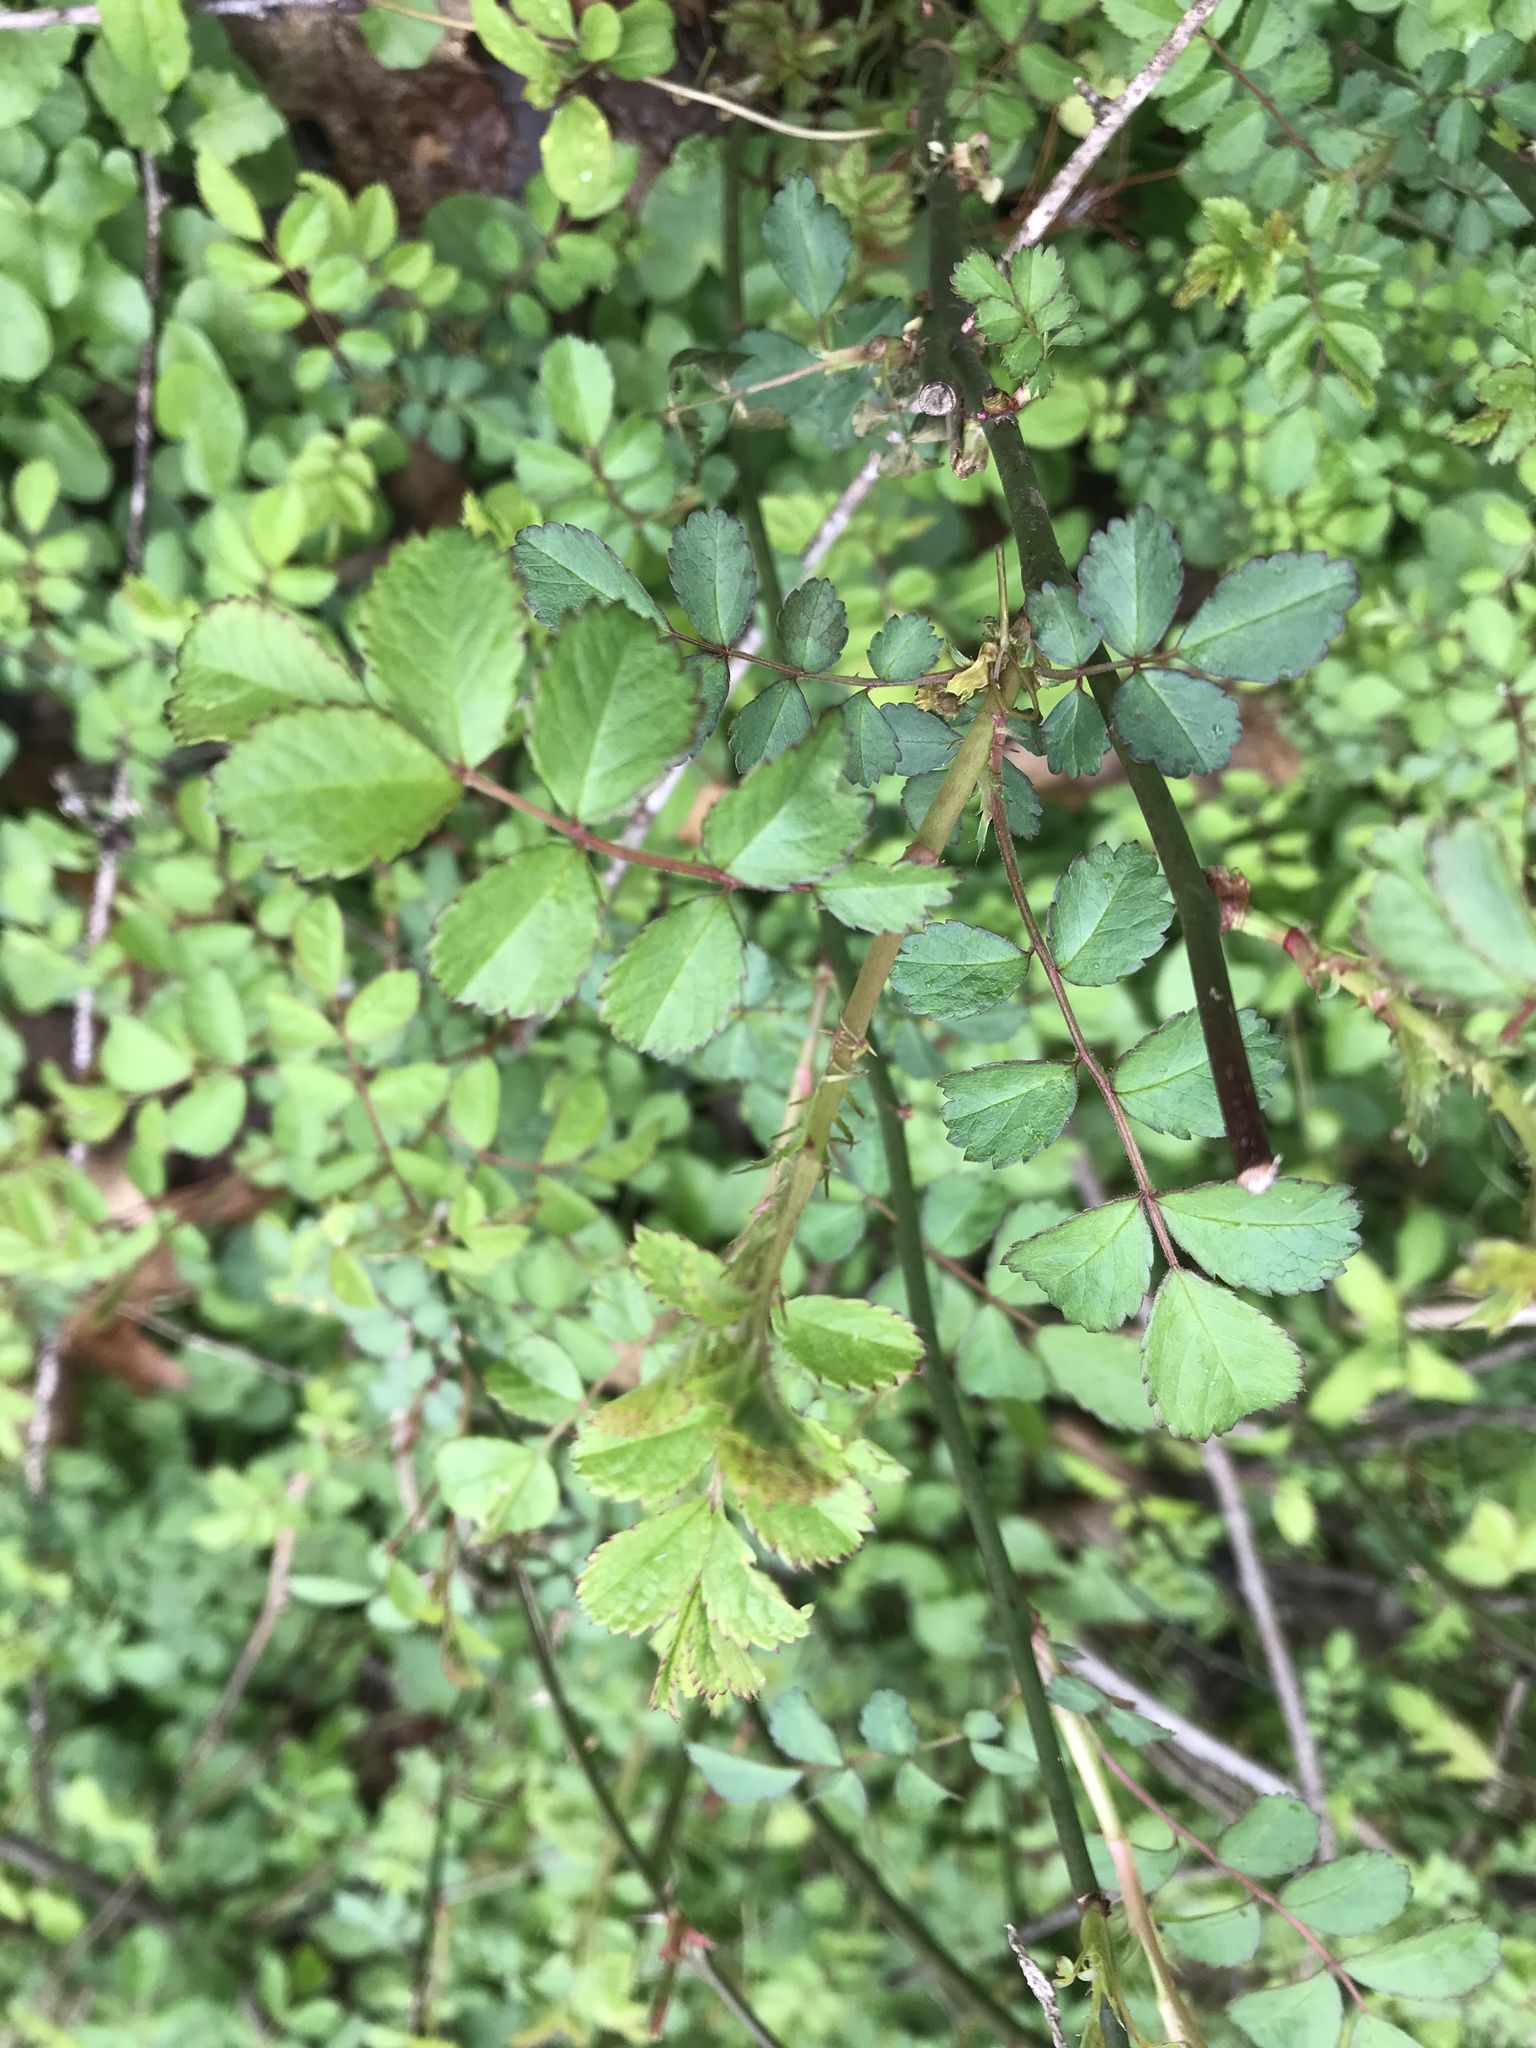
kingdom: Plantae
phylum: Tracheophyta
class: Magnoliopsida
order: Rosales
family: Rosaceae
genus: Rosa
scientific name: Rosa multiflora
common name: Multiflora rose
